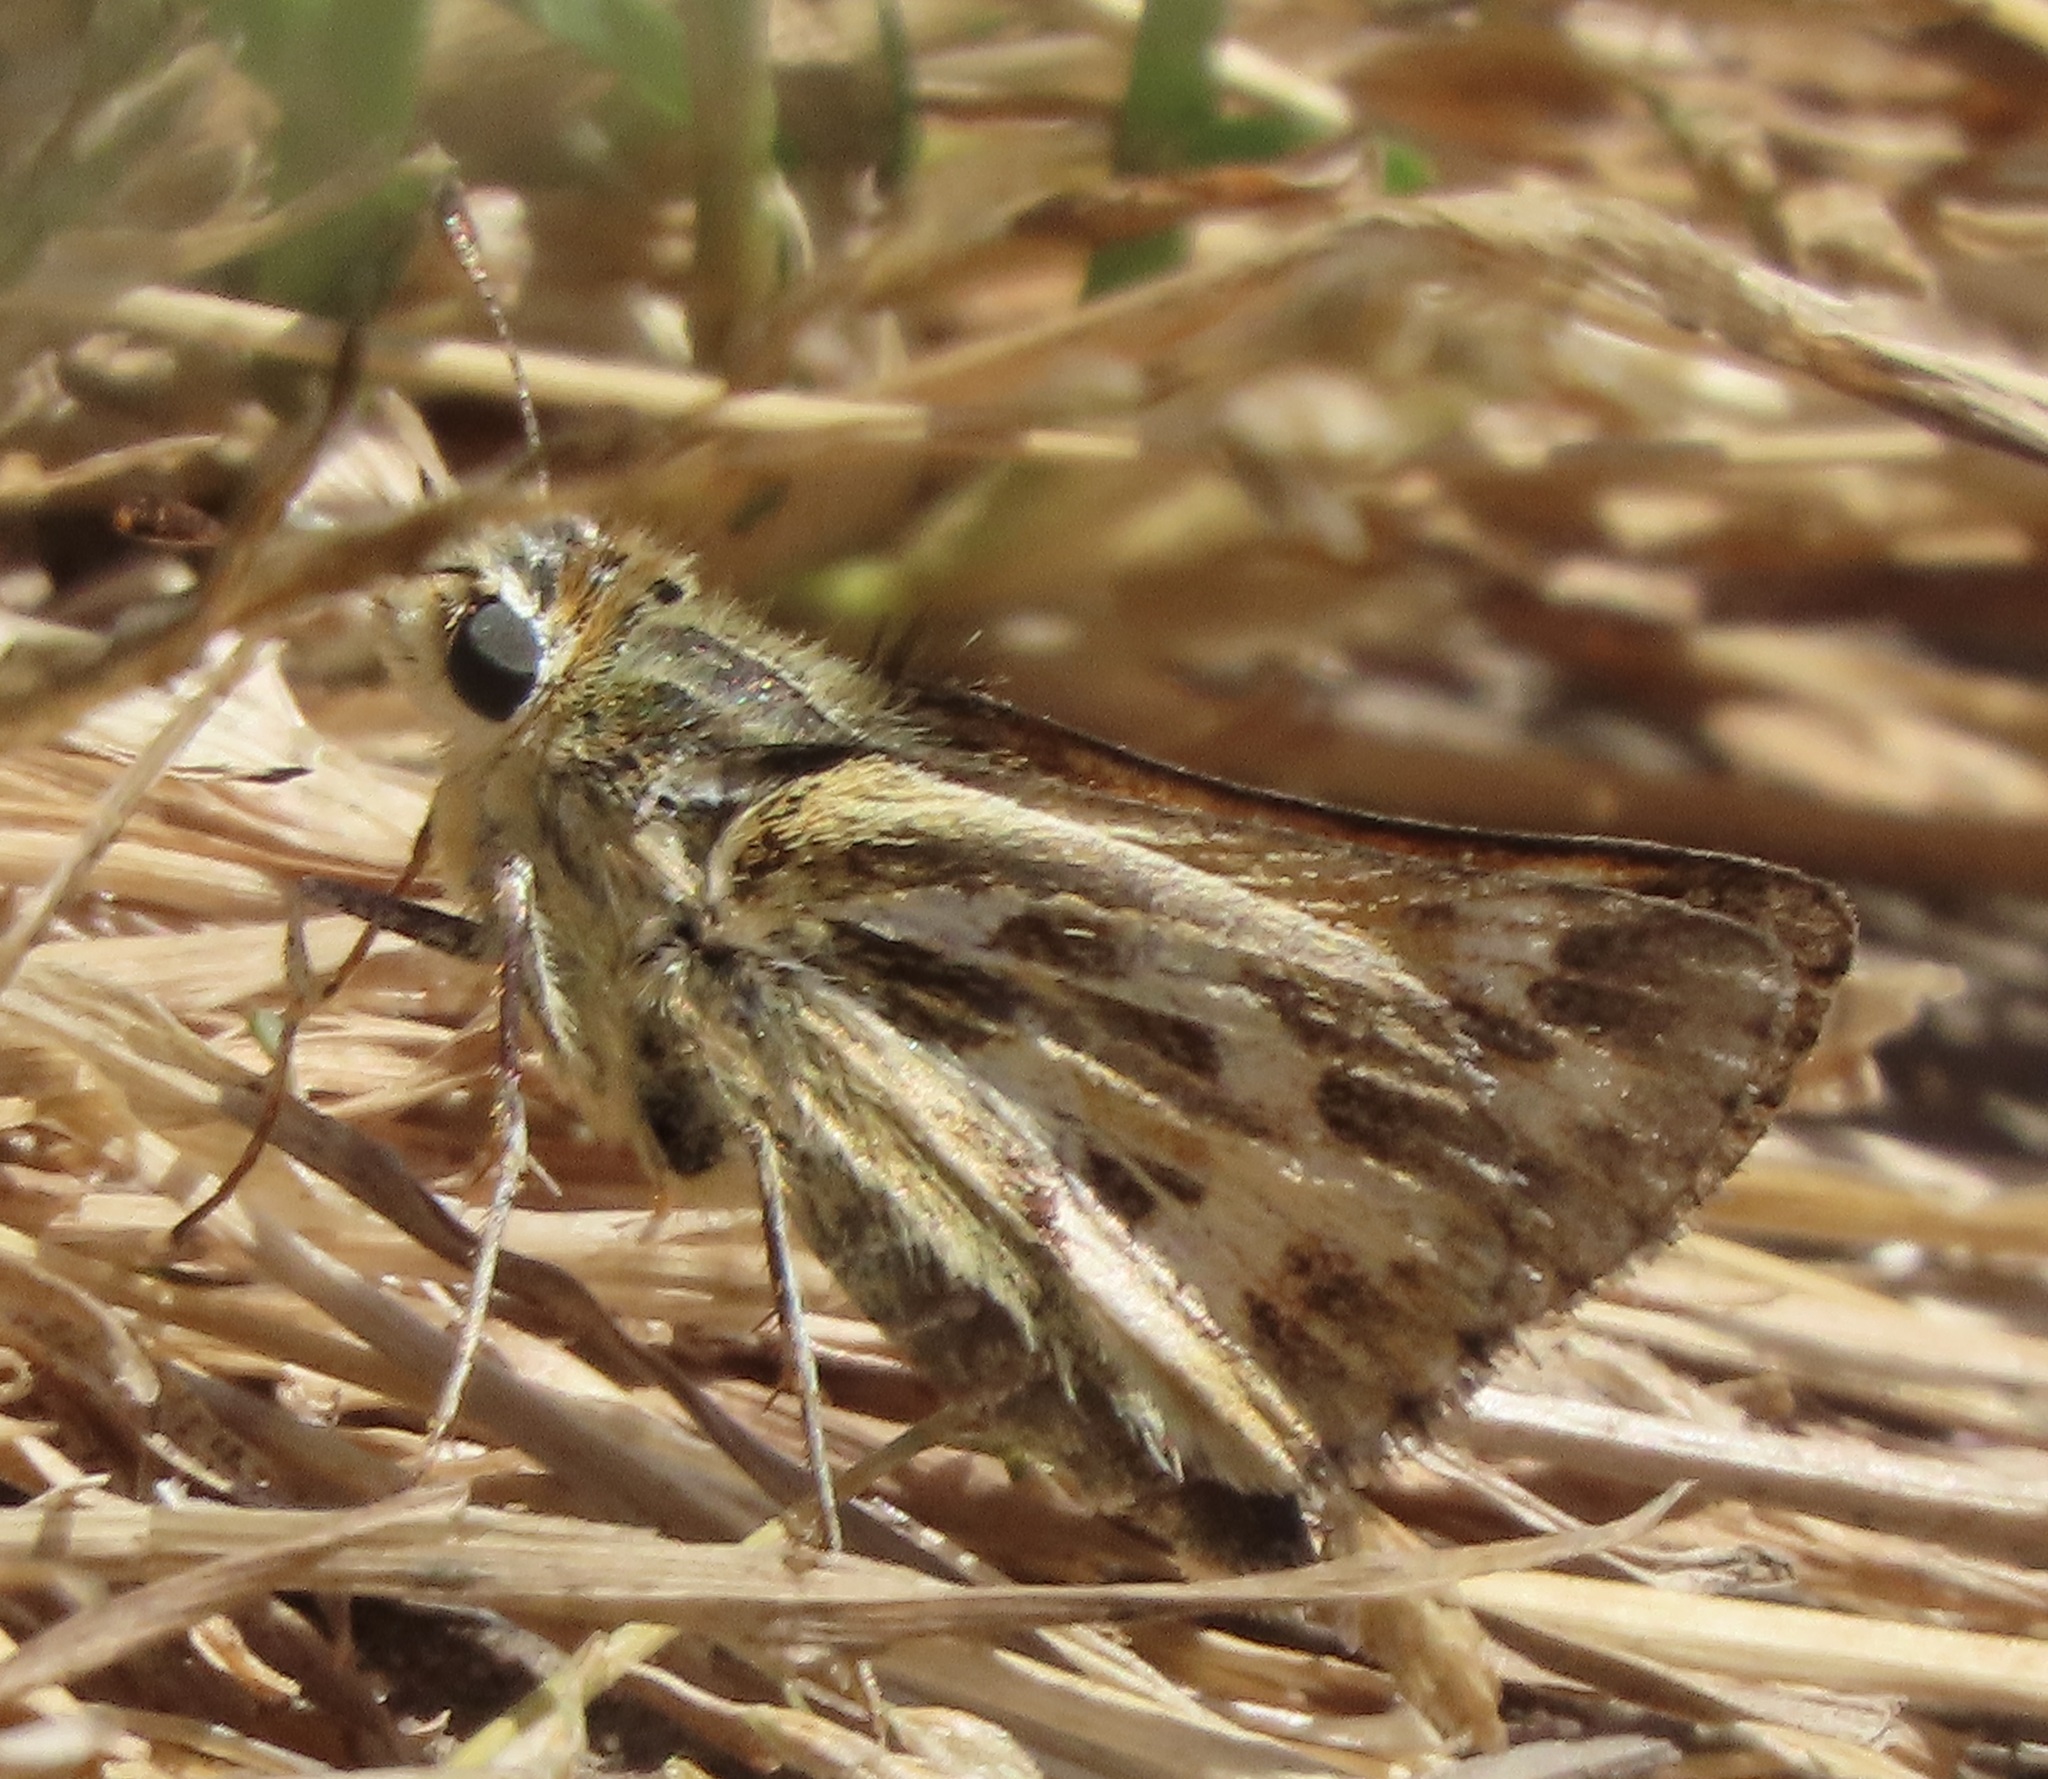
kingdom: Animalia
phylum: Arthropoda
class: Insecta
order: Lepidoptera
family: Hesperiidae
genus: Polites
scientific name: Polites sabuleti
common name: Sandhill skipper
